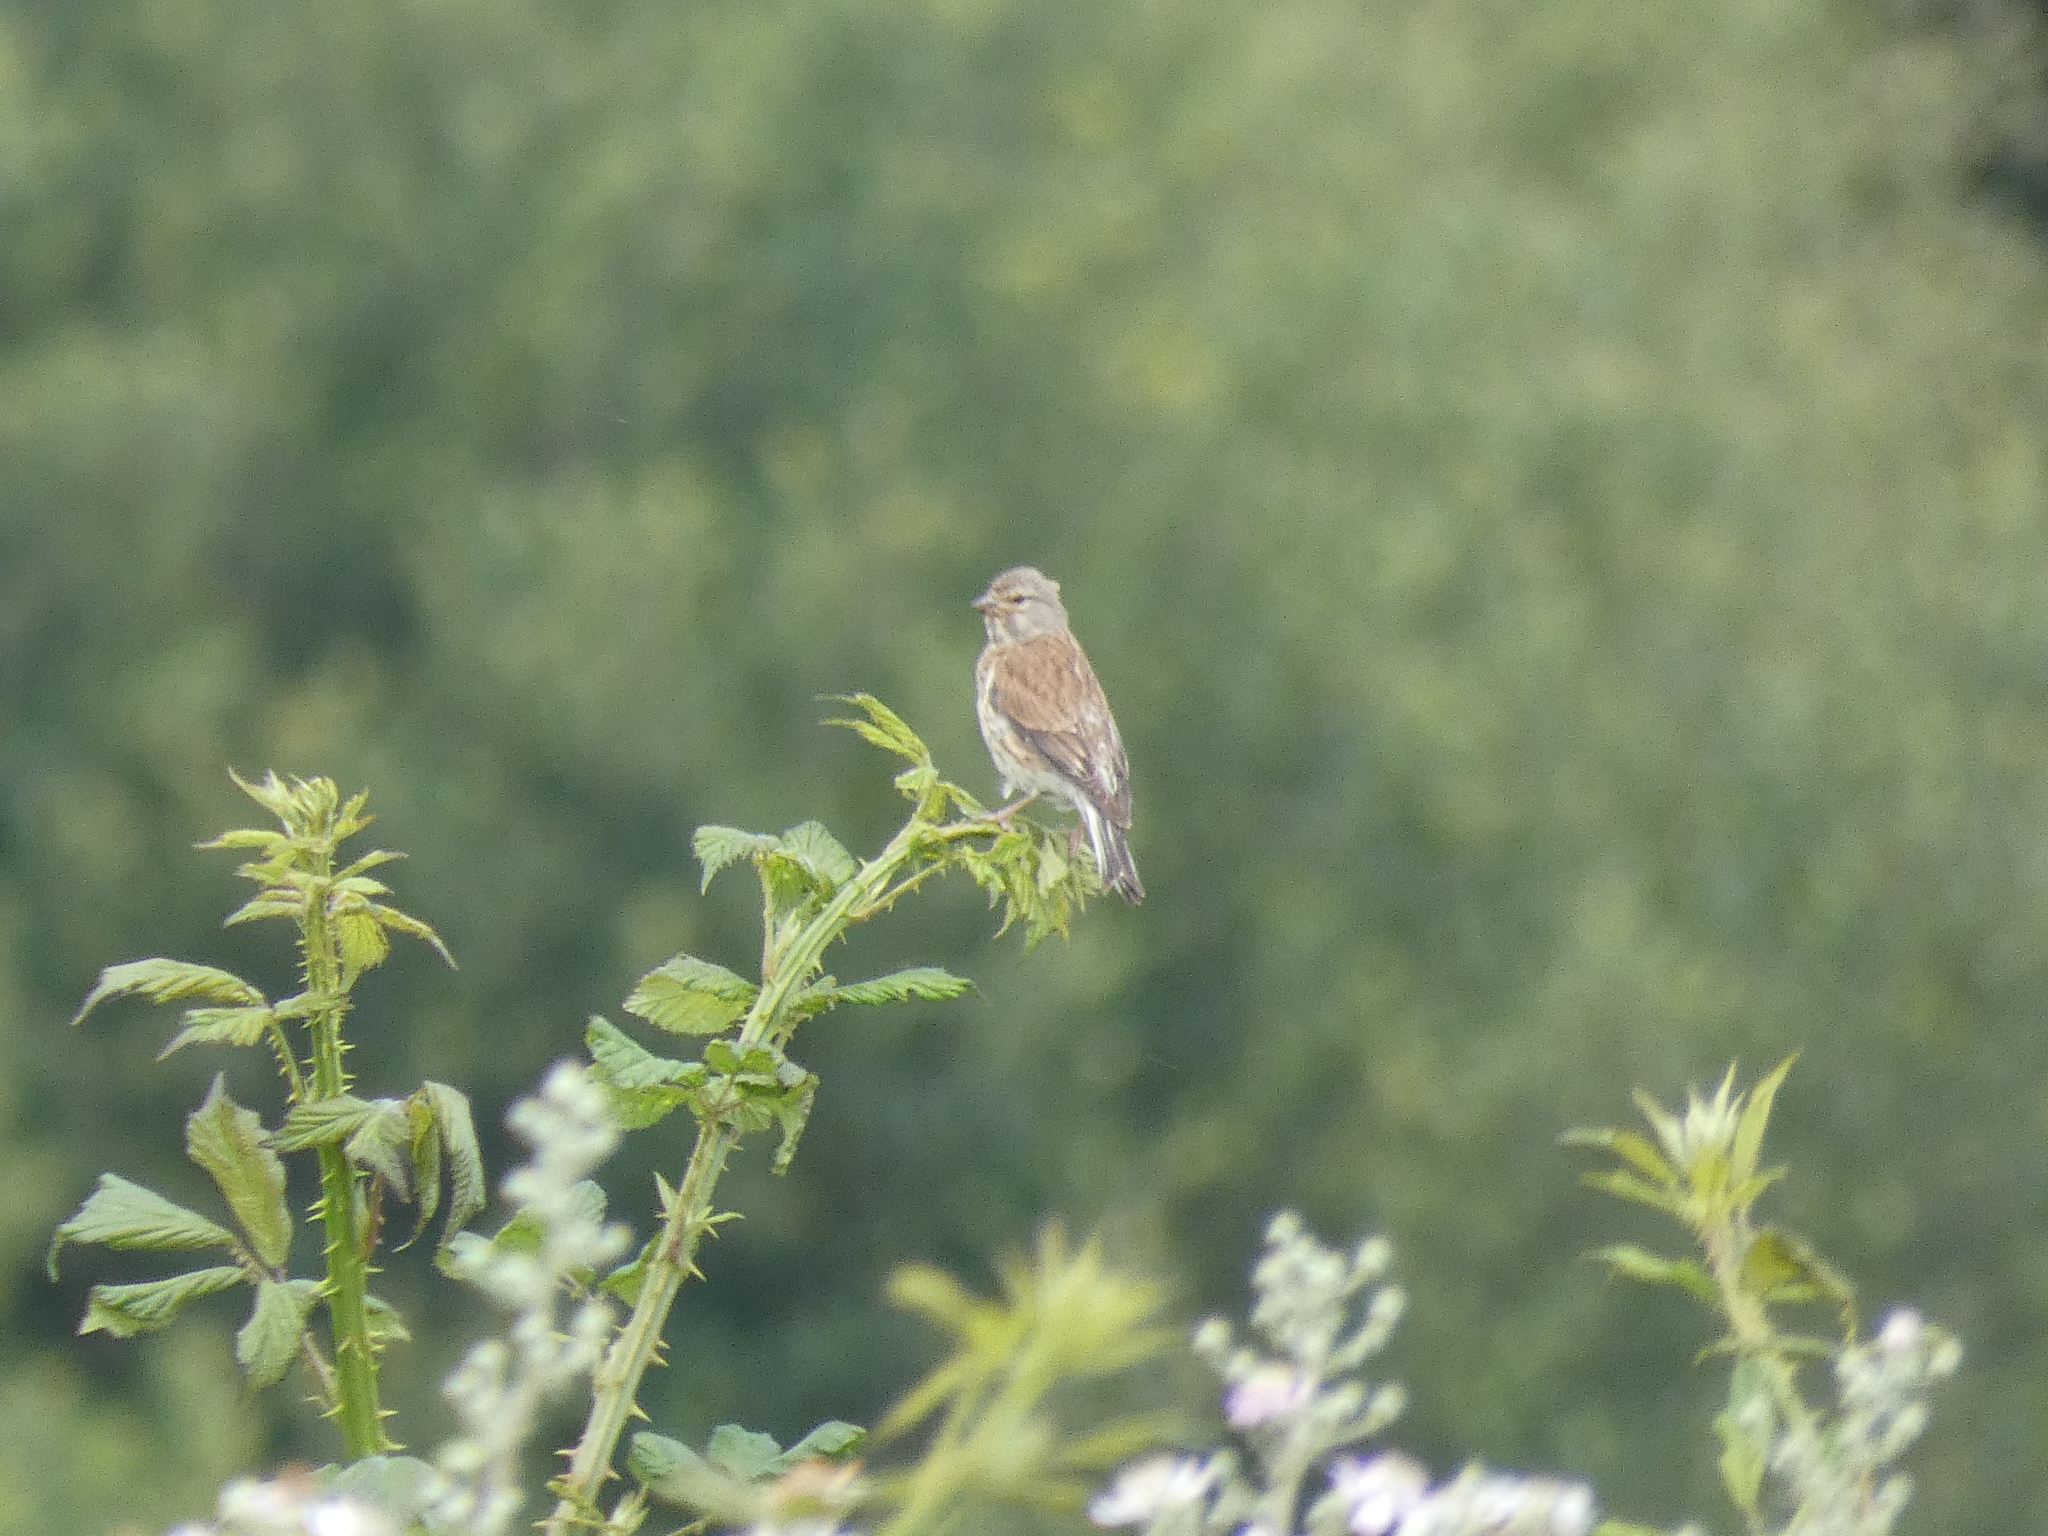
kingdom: Animalia
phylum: Chordata
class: Aves
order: Passeriformes
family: Fringillidae
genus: Linaria
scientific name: Linaria cannabina
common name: Common linnet
